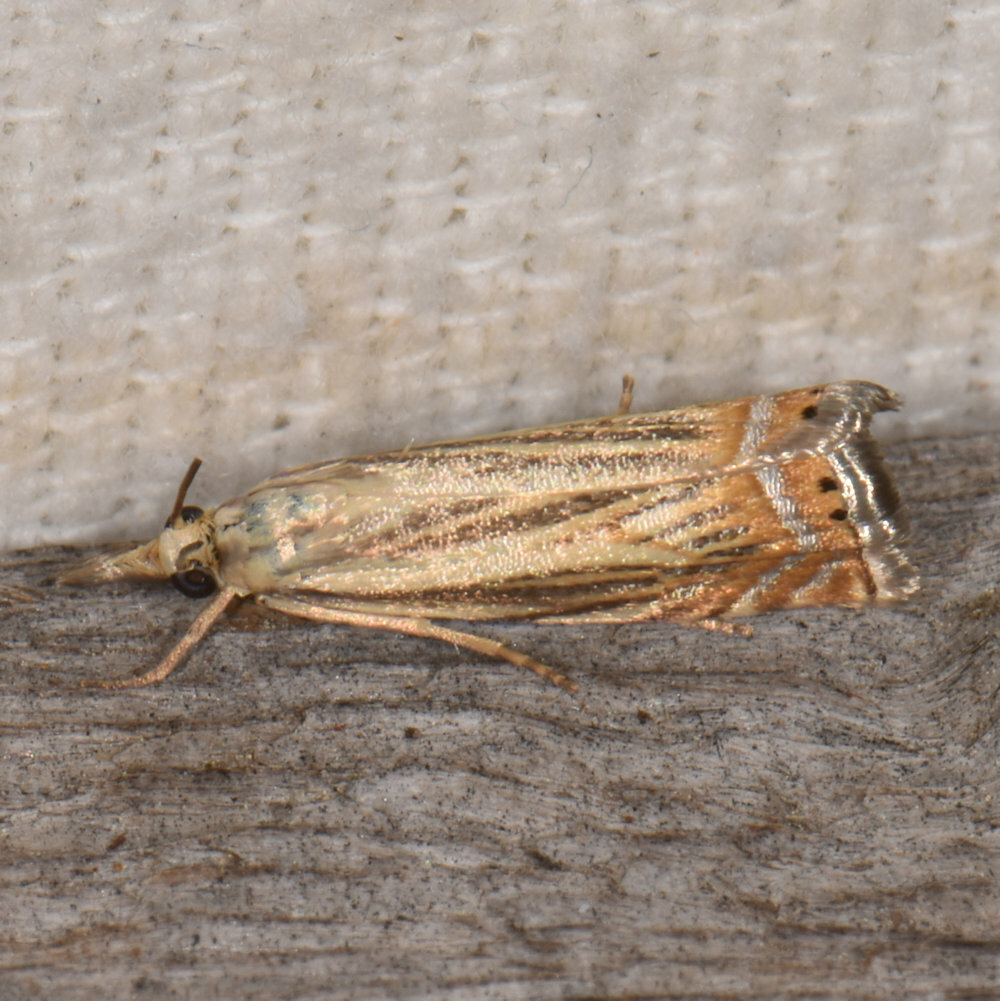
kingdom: Animalia
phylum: Arthropoda
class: Insecta
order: Lepidoptera
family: Crambidae
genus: Chrysoteuchia
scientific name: Chrysoteuchia topiarius
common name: Topiary grass-veneer
